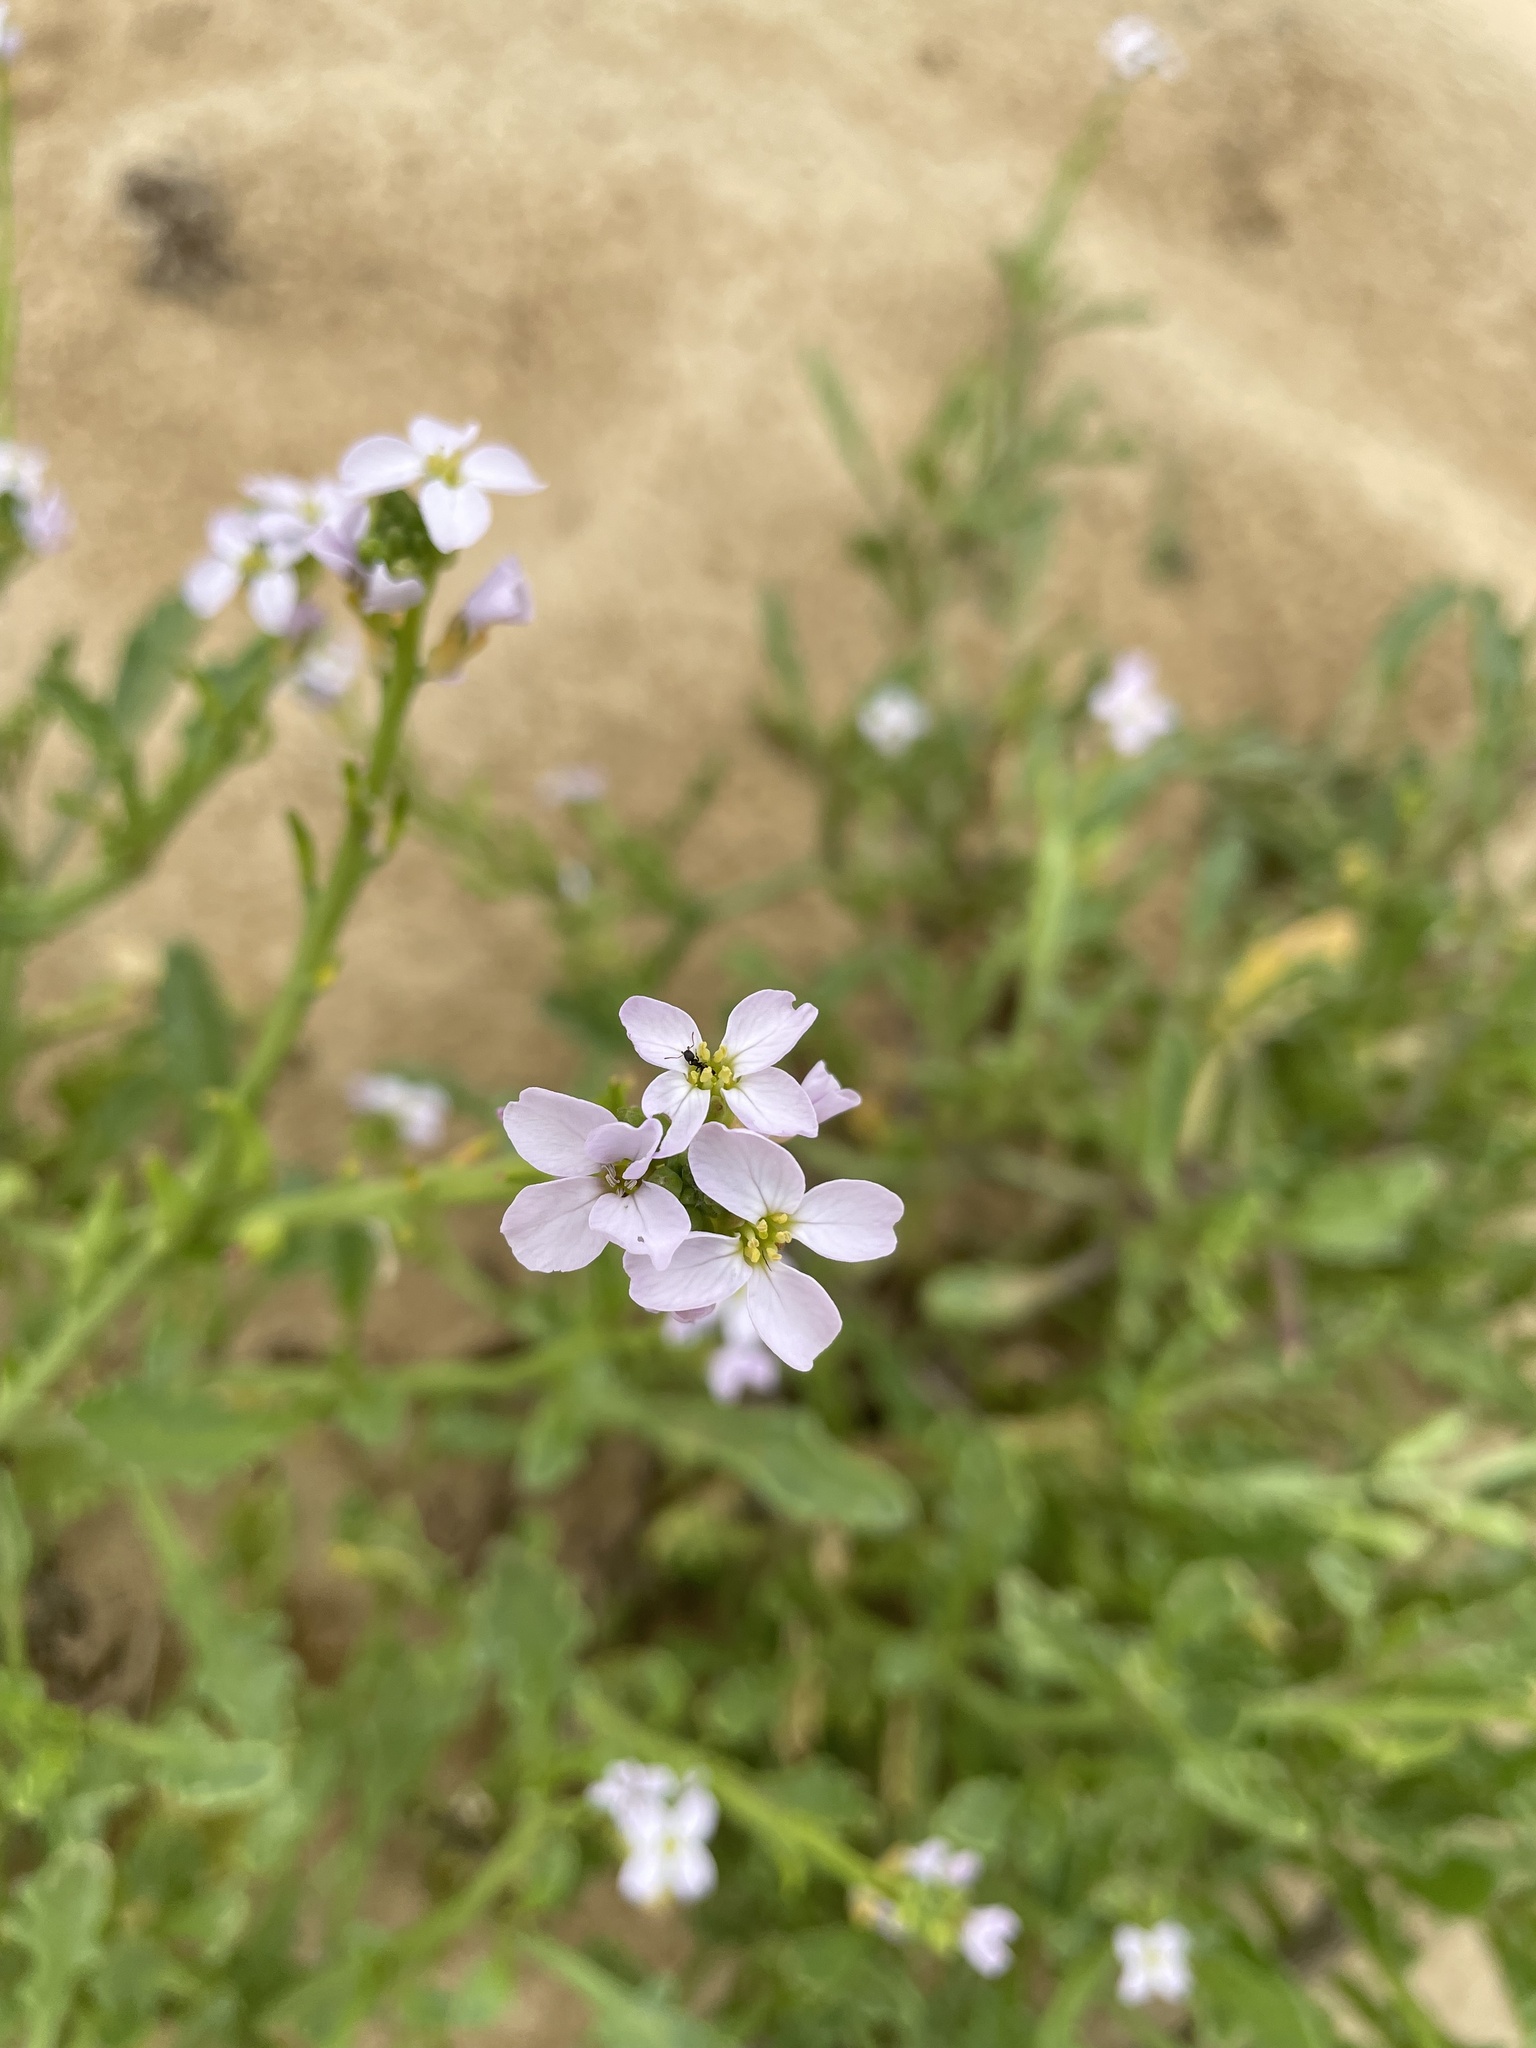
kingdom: Plantae
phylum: Tracheophyta
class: Magnoliopsida
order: Brassicales
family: Brassicaceae
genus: Cakile
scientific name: Cakile maritima
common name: Sea rocket
